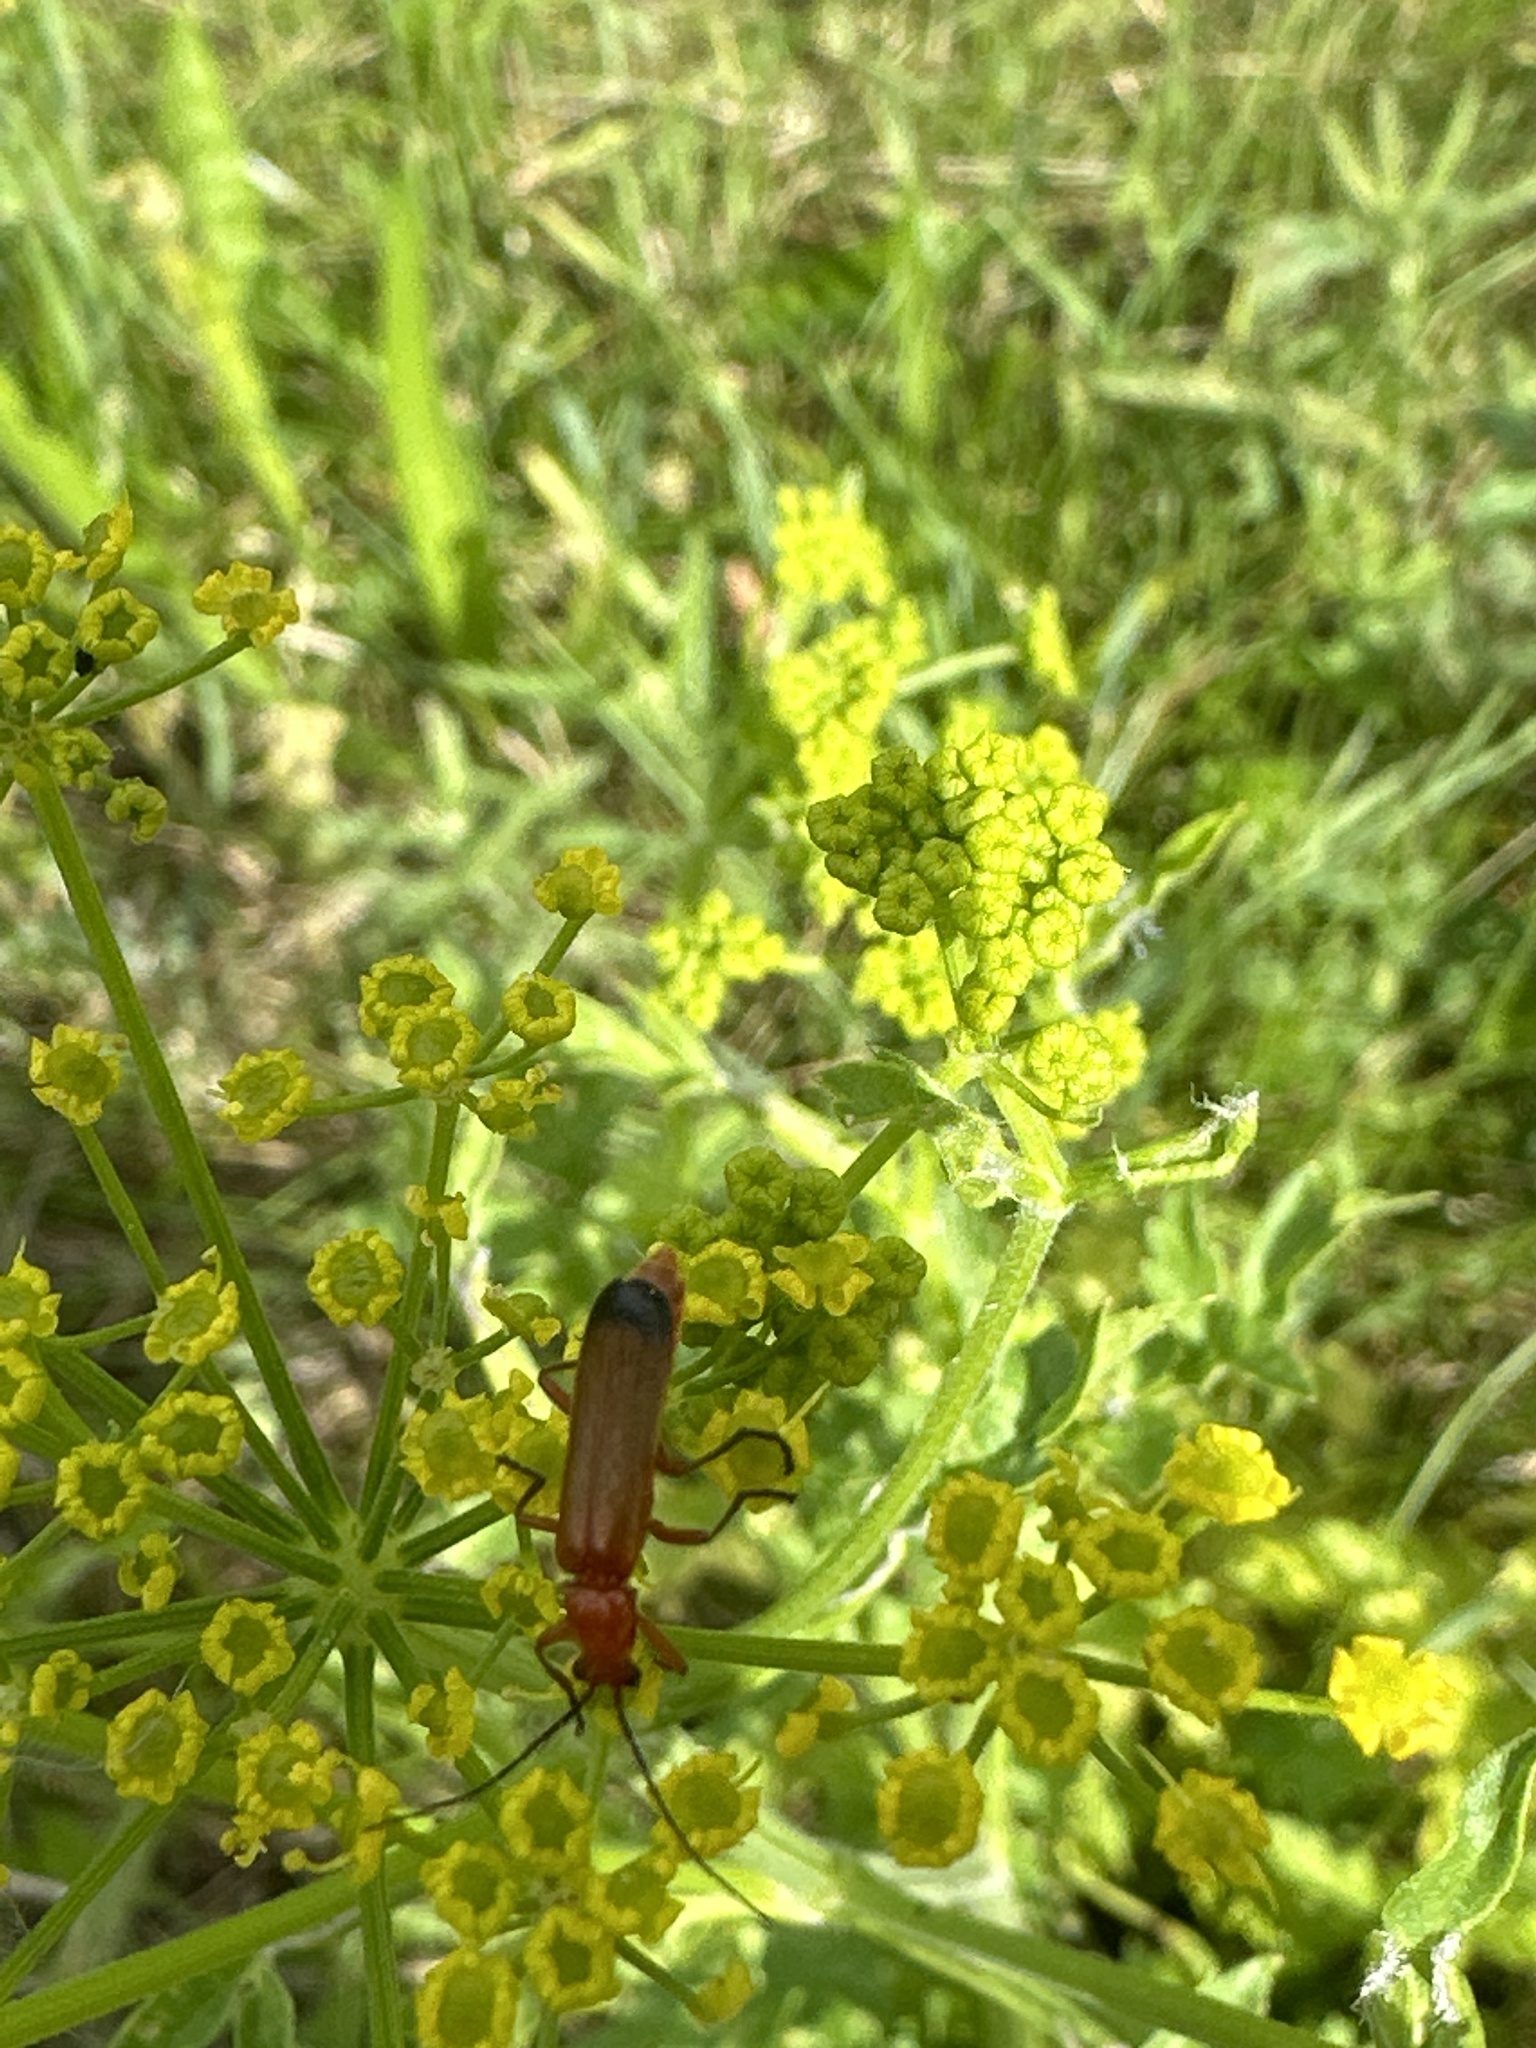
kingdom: Animalia
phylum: Arthropoda
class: Insecta
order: Coleoptera
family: Cantharidae
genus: Rhagonycha
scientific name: Rhagonycha fulva
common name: Common red soldier beetle
